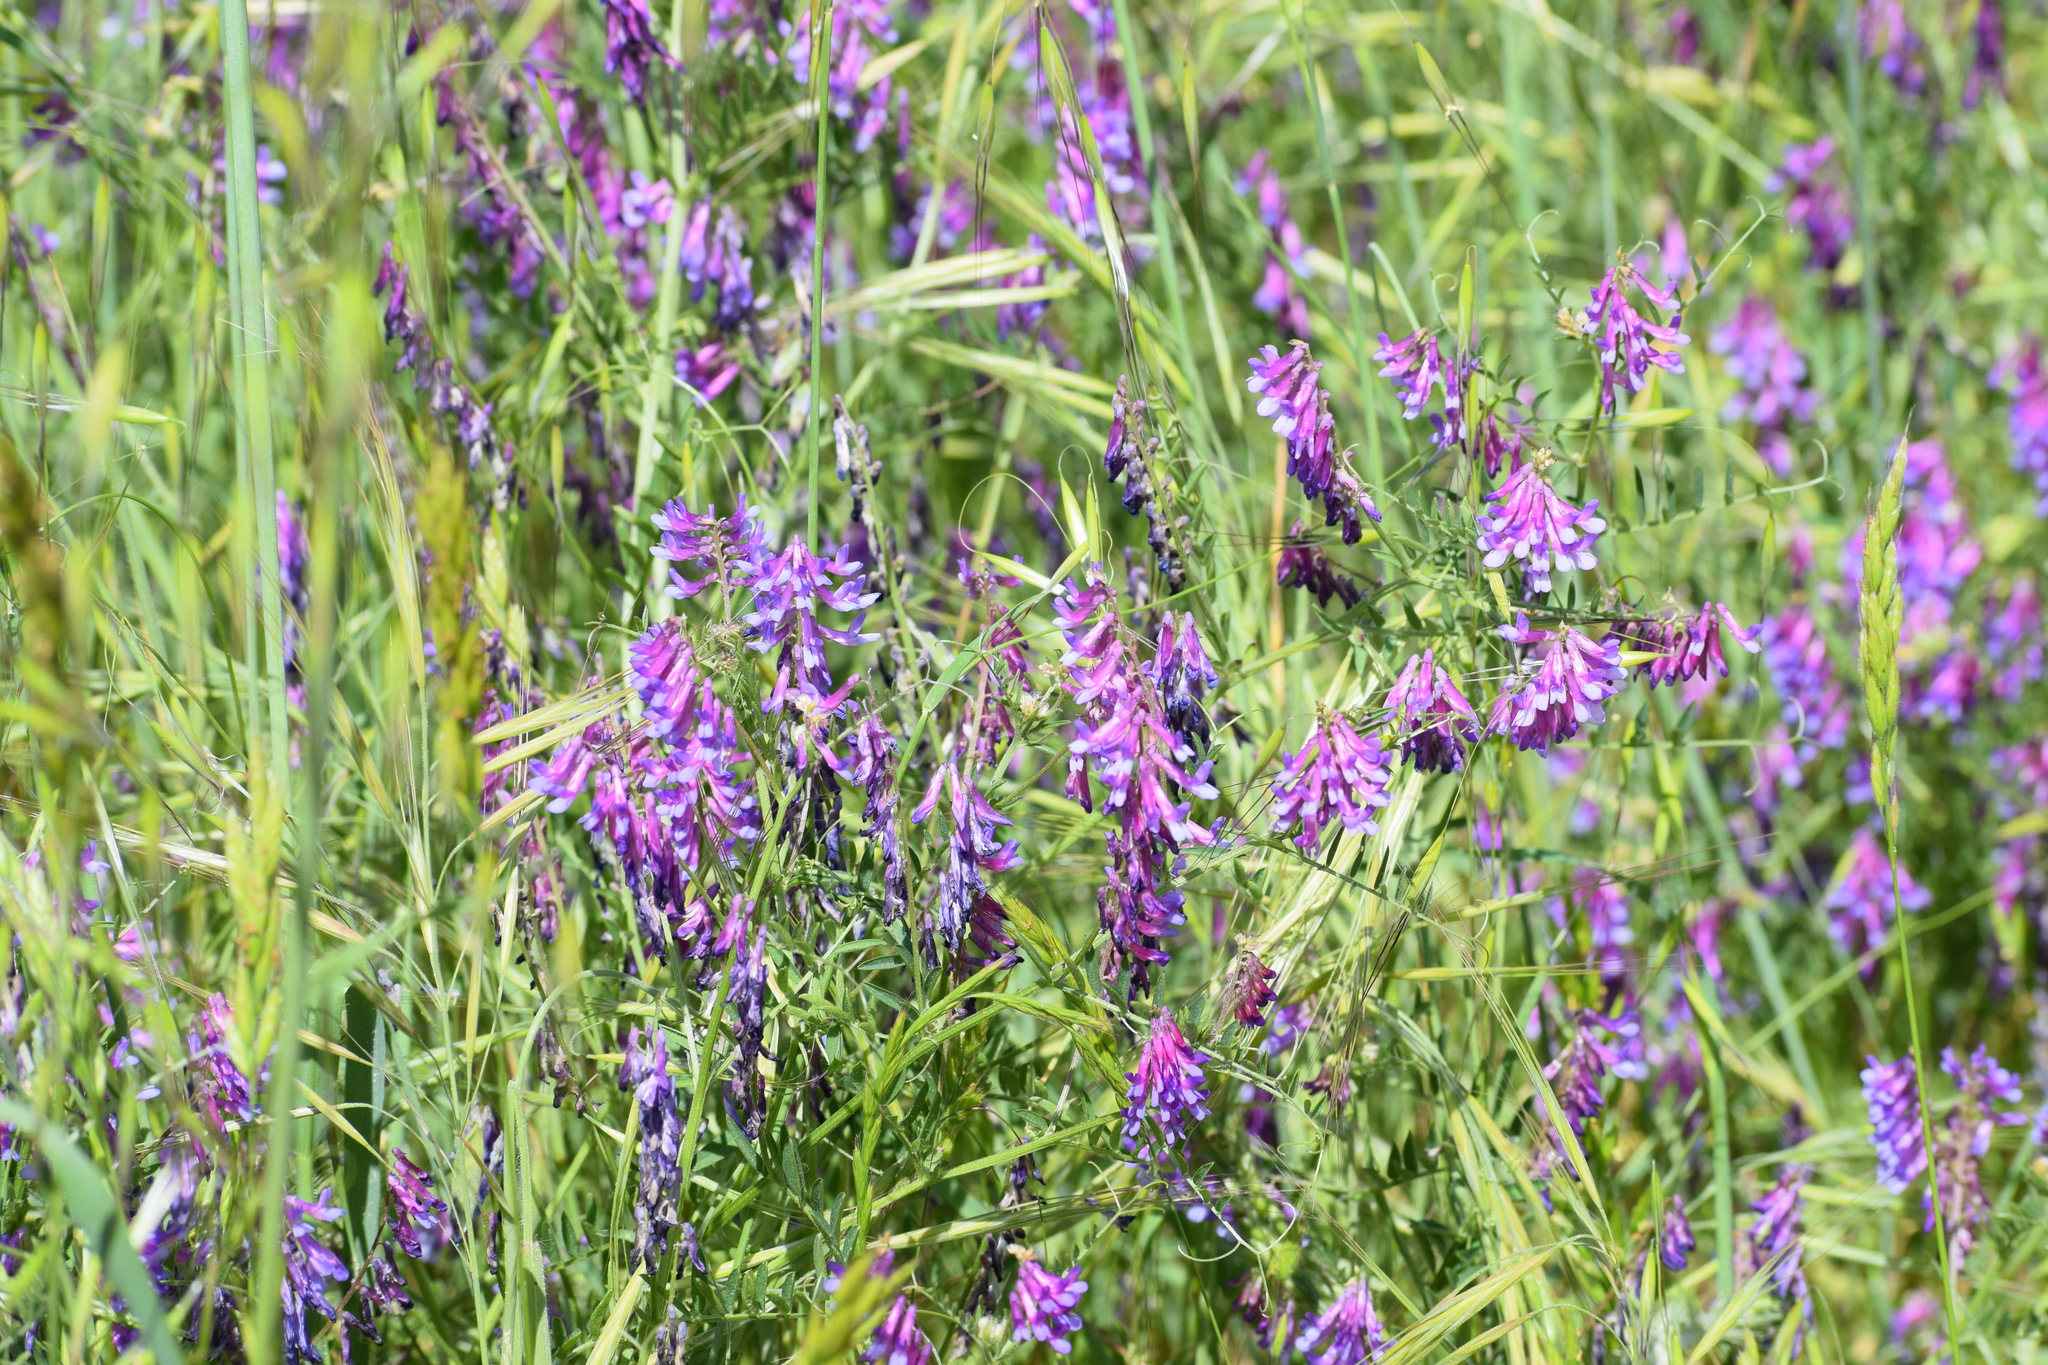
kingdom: Plantae
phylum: Tracheophyta
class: Magnoliopsida
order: Fabales
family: Fabaceae
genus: Vicia
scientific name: Vicia villosa
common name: Fodder vetch
